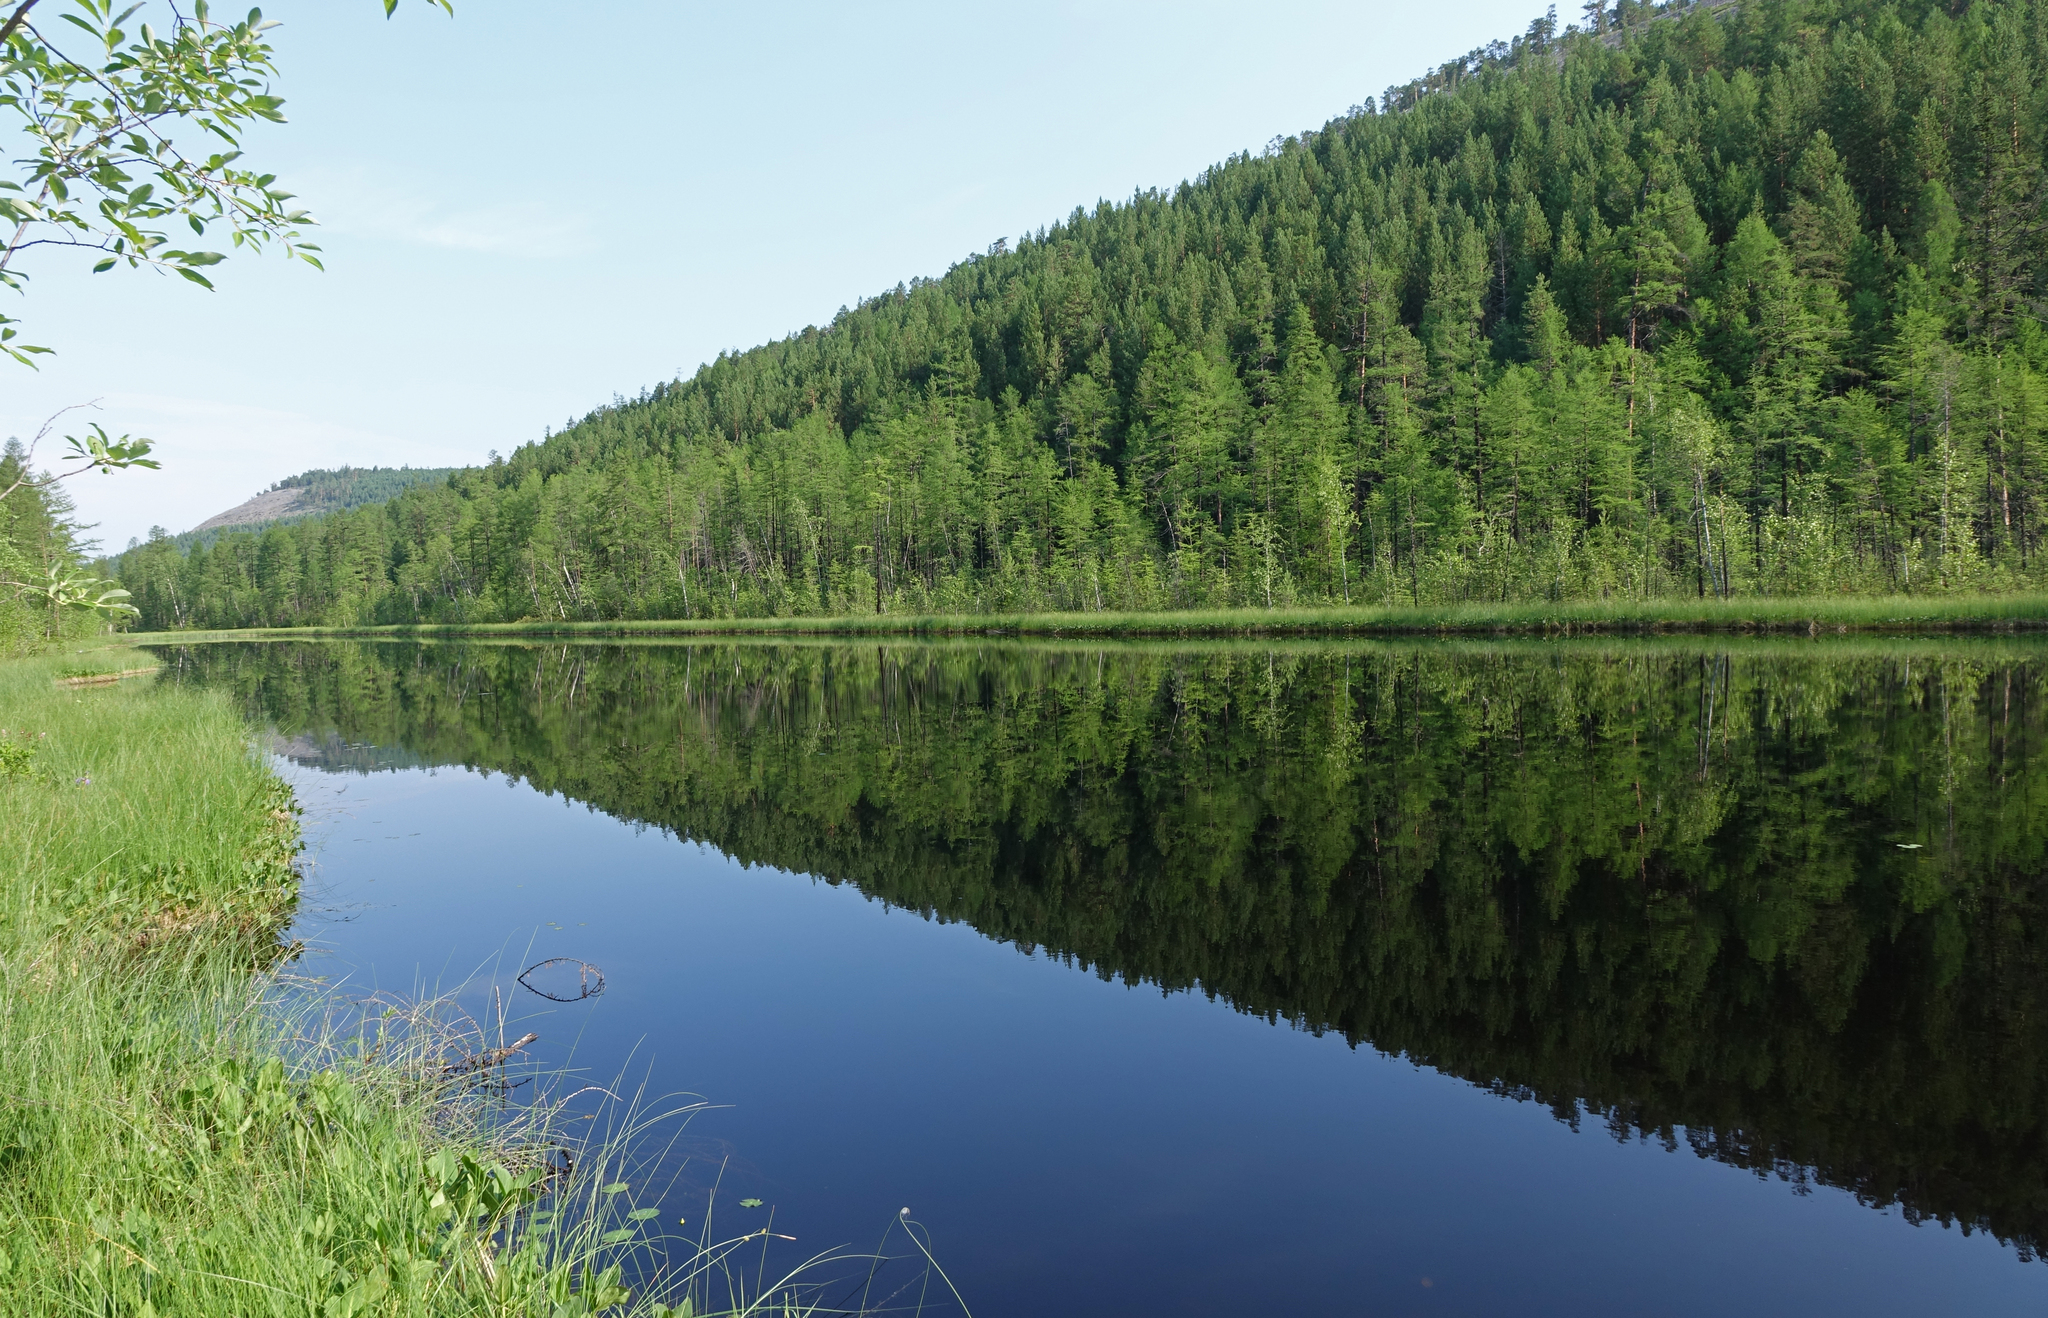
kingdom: Plantae
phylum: Tracheophyta
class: Pinopsida
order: Pinales
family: Pinaceae
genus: Pinus
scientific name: Pinus sylvestris
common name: Scots pine
